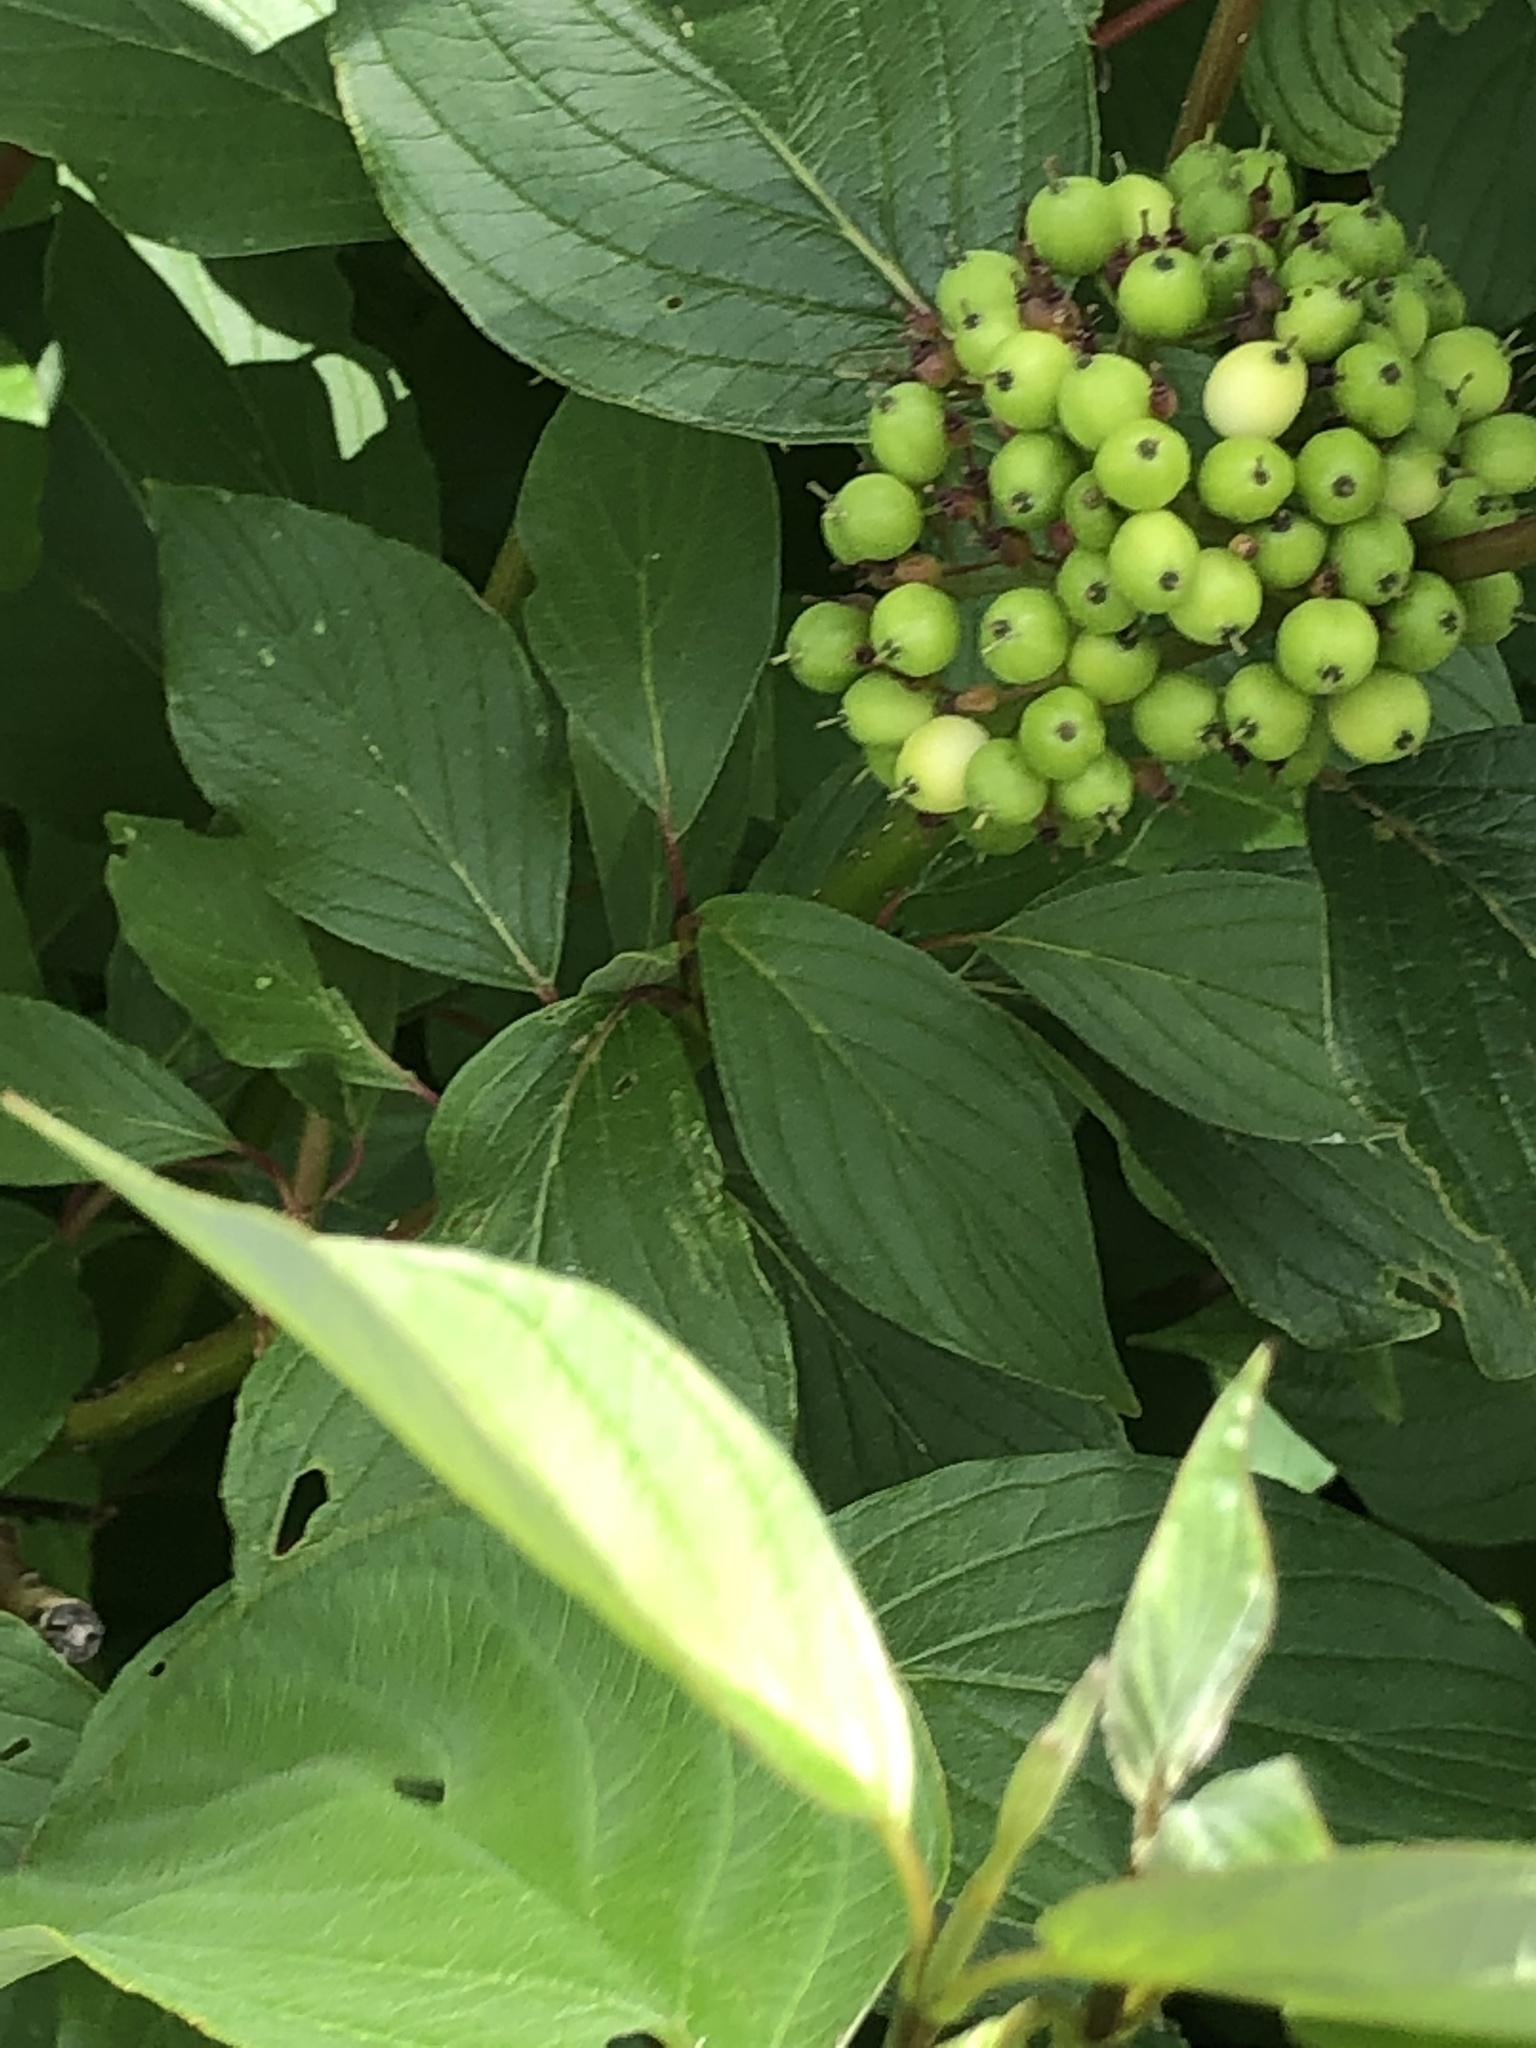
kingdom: Plantae
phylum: Tracheophyta
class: Magnoliopsida
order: Cornales
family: Cornaceae
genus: Cornus
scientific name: Cornus sericea
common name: Red-osier dogwood
